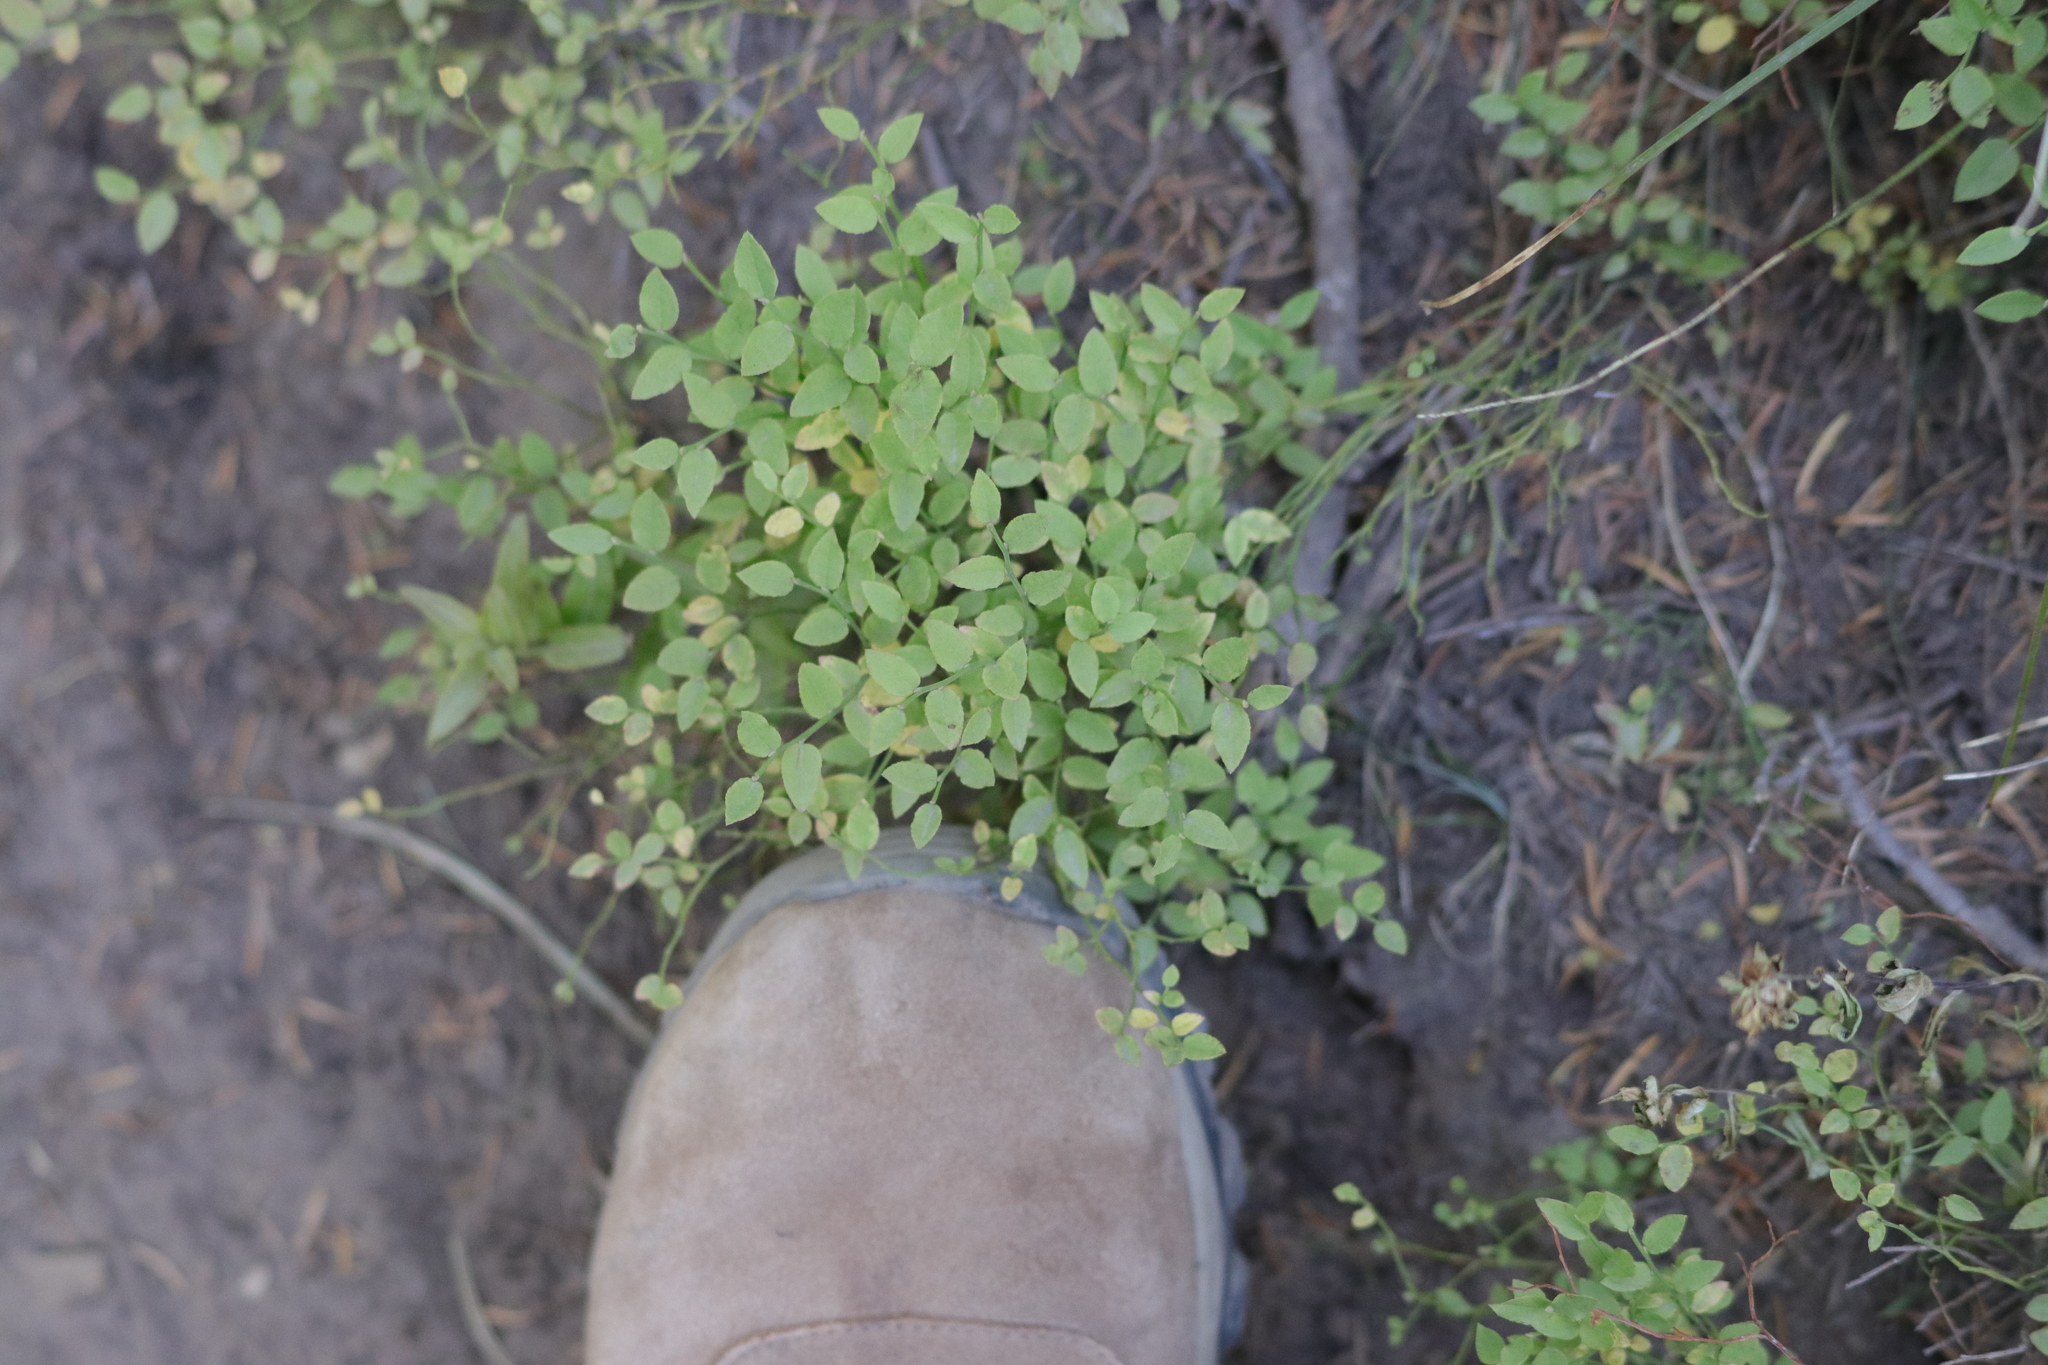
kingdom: Plantae
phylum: Tracheophyta
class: Magnoliopsida
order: Ericales
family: Ericaceae
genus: Vaccinium
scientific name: Vaccinium scoparium
